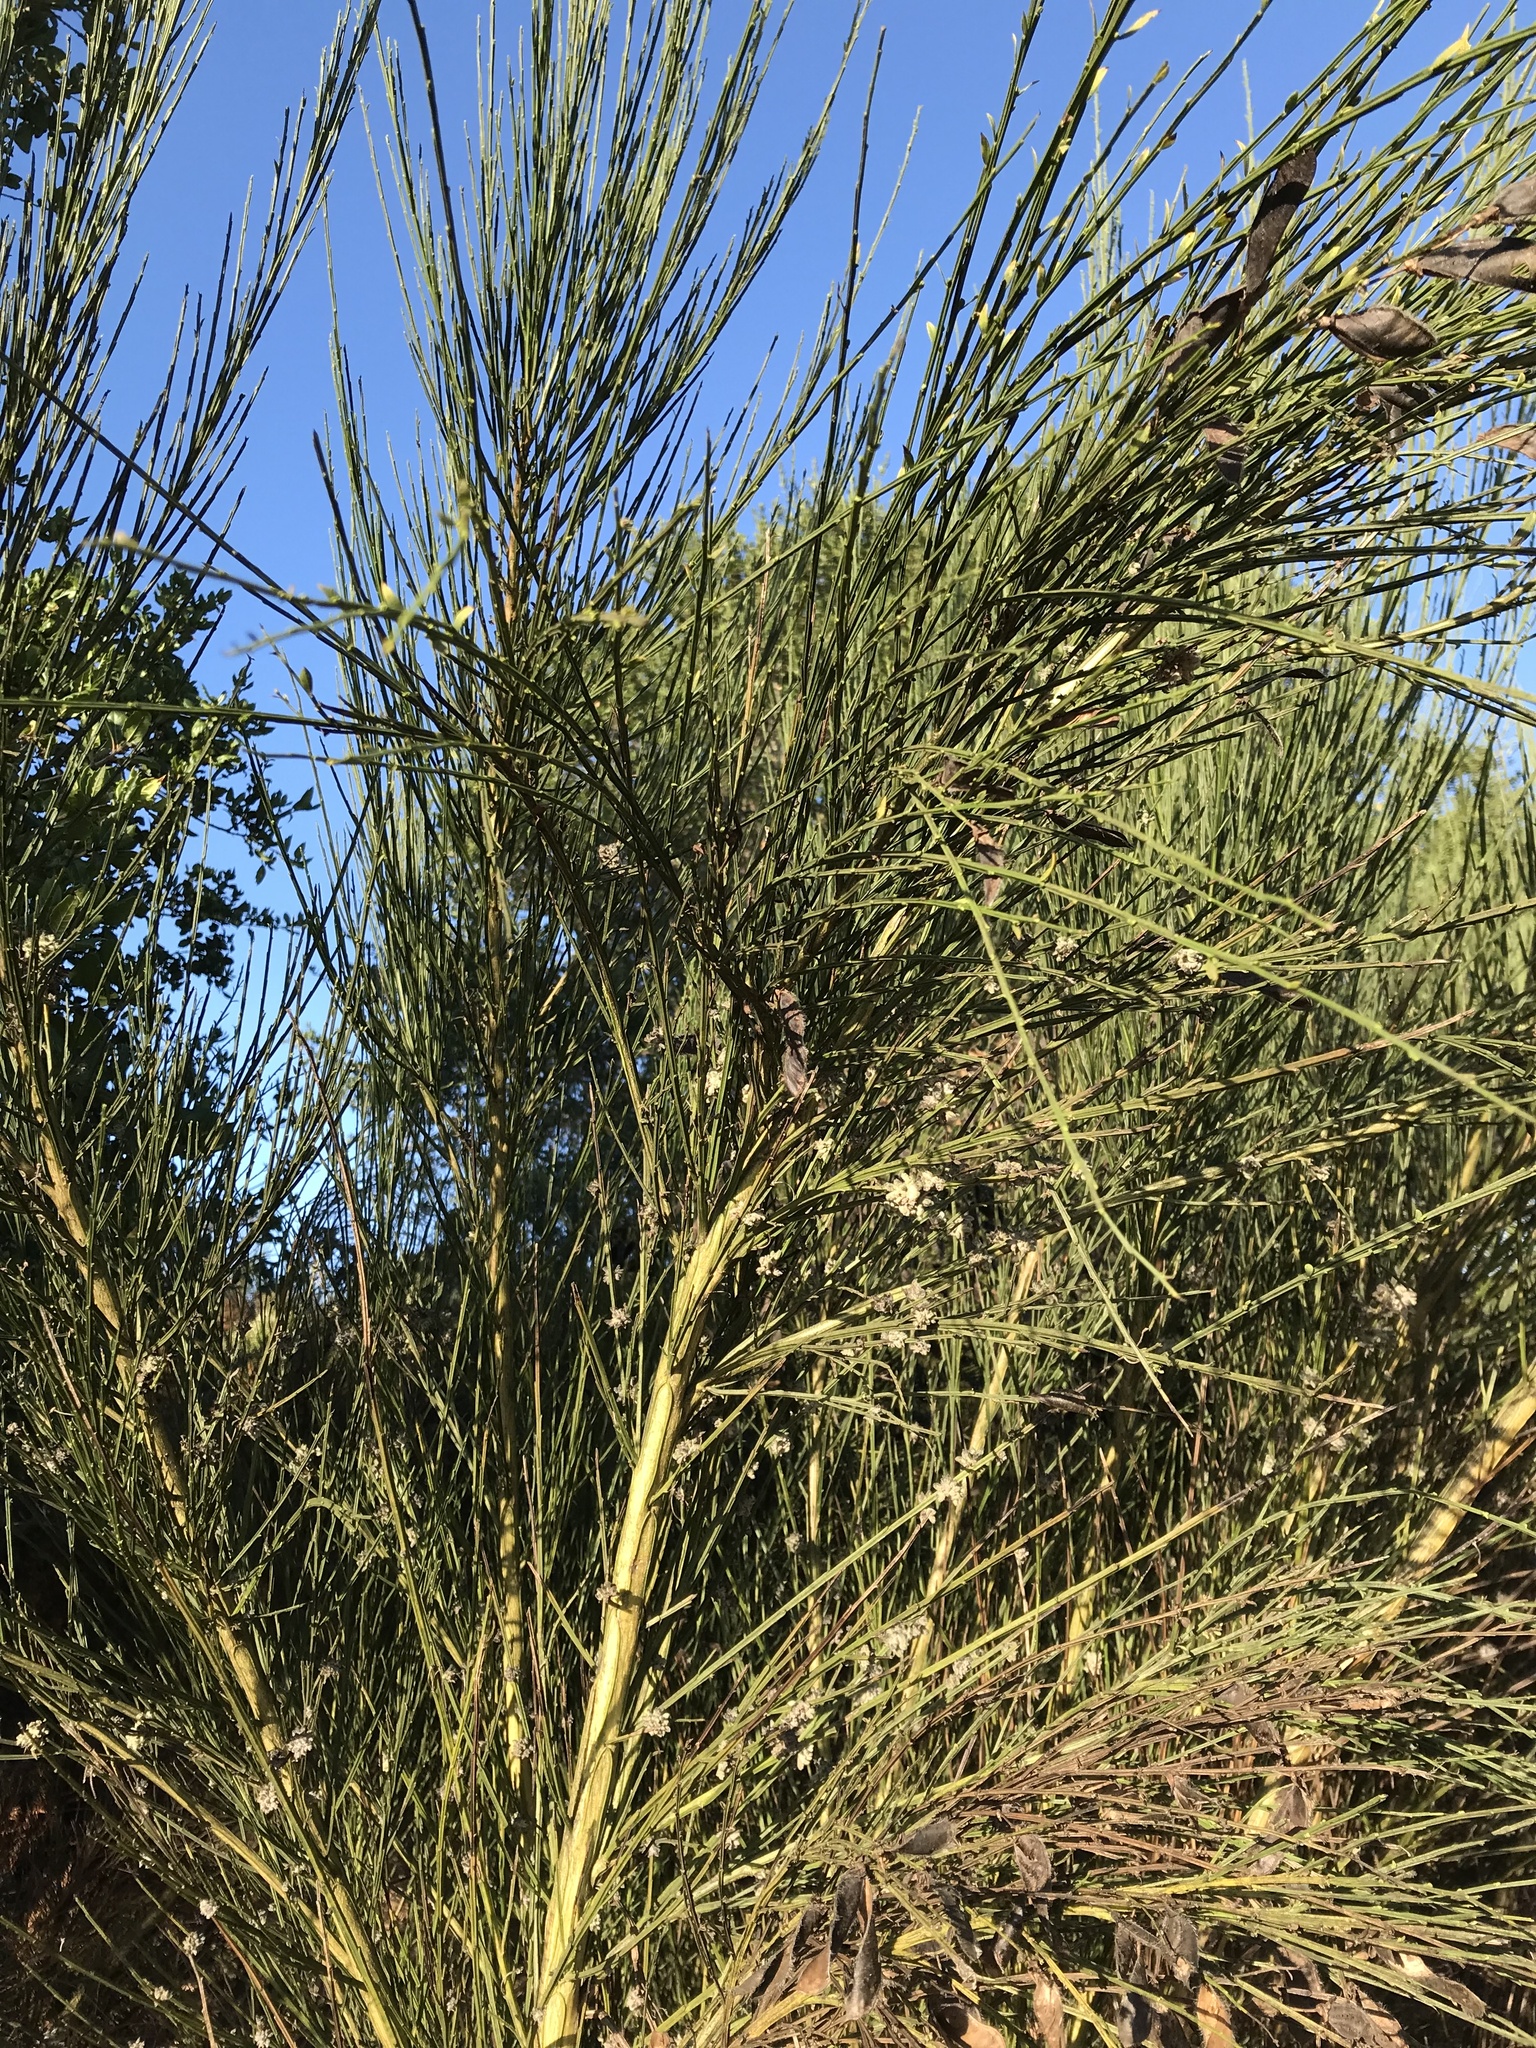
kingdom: Animalia
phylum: Arthropoda
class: Arachnida
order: Trombidiformes
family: Eriophyidae
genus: Aceria
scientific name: Aceria genistae
